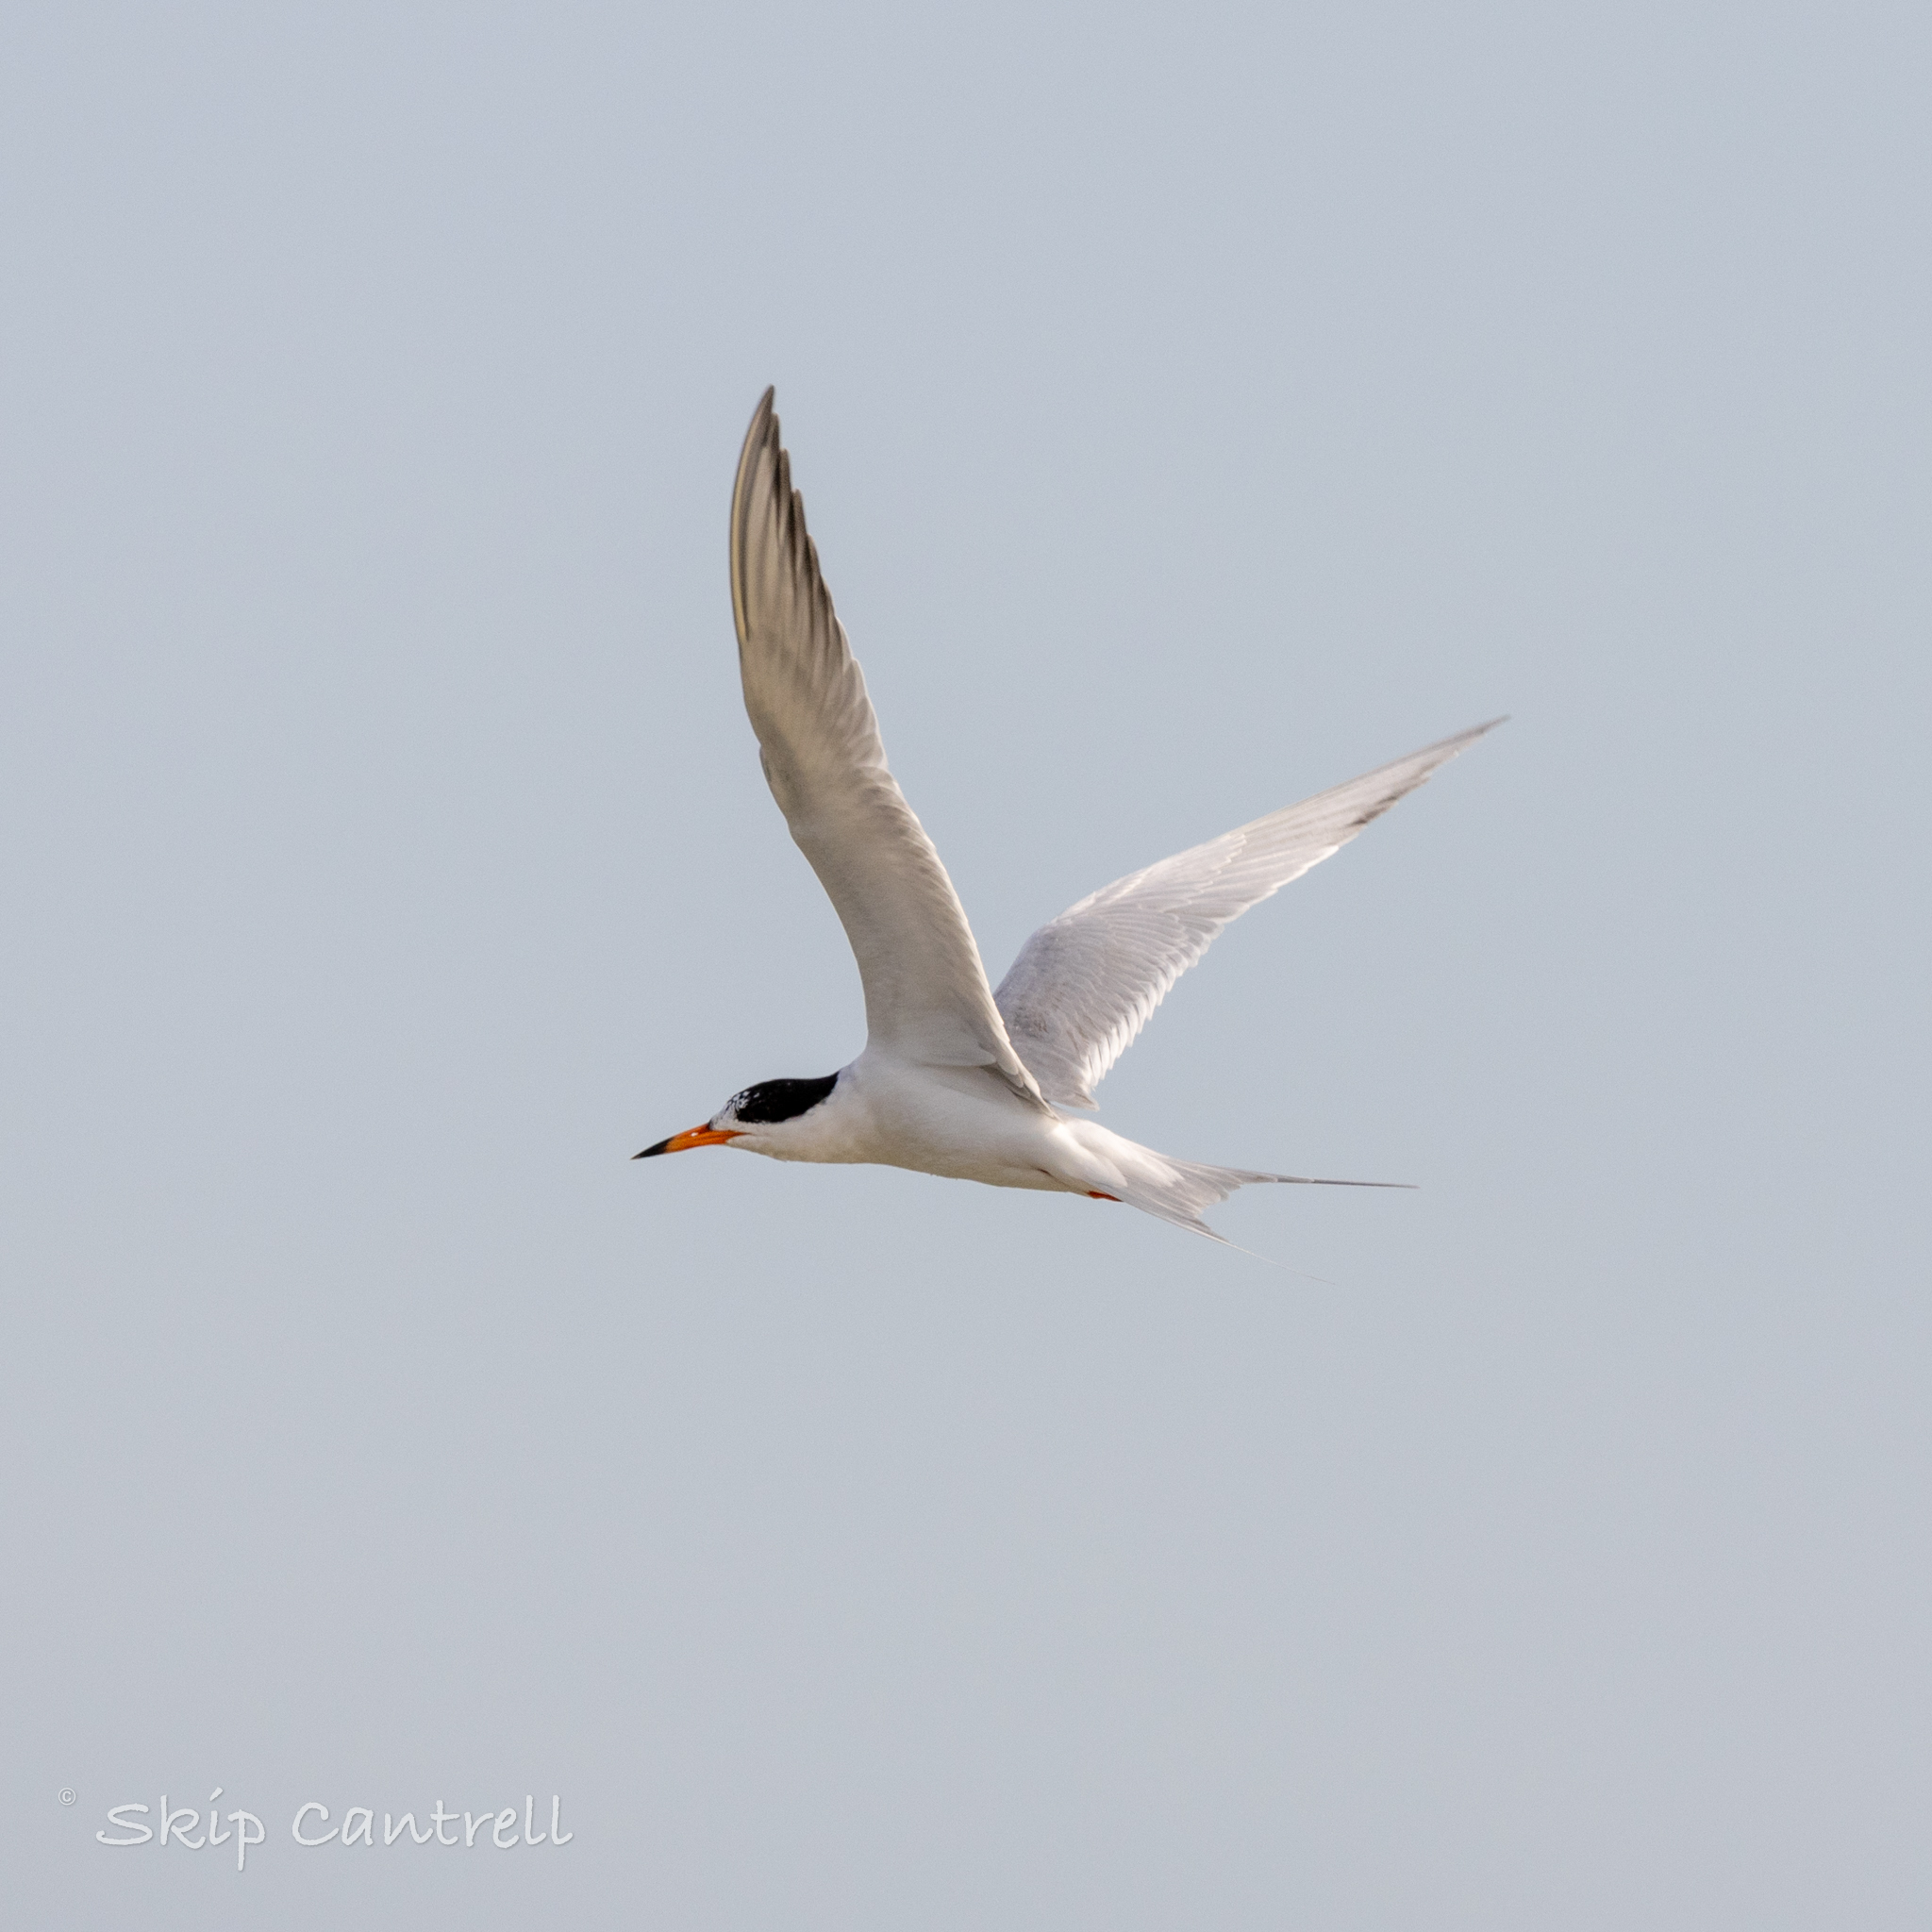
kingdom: Animalia
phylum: Chordata
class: Aves
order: Charadriiformes
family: Laridae
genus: Sterna
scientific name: Sterna forsteri
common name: Forster's tern
